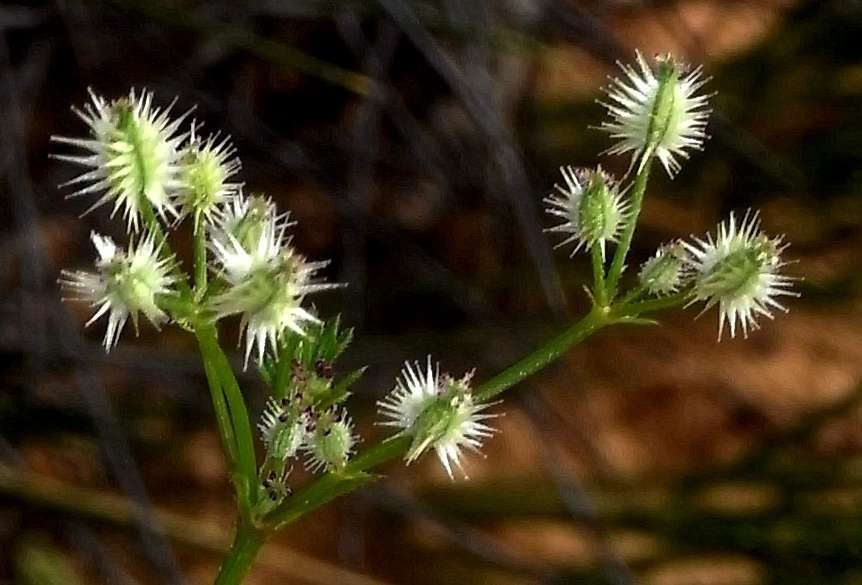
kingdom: Plantae
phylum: Tracheophyta
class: Magnoliopsida
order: Apiales
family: Apiaceae
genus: Daucus
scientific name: Daucus glochidiatus
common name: Australian carrot
